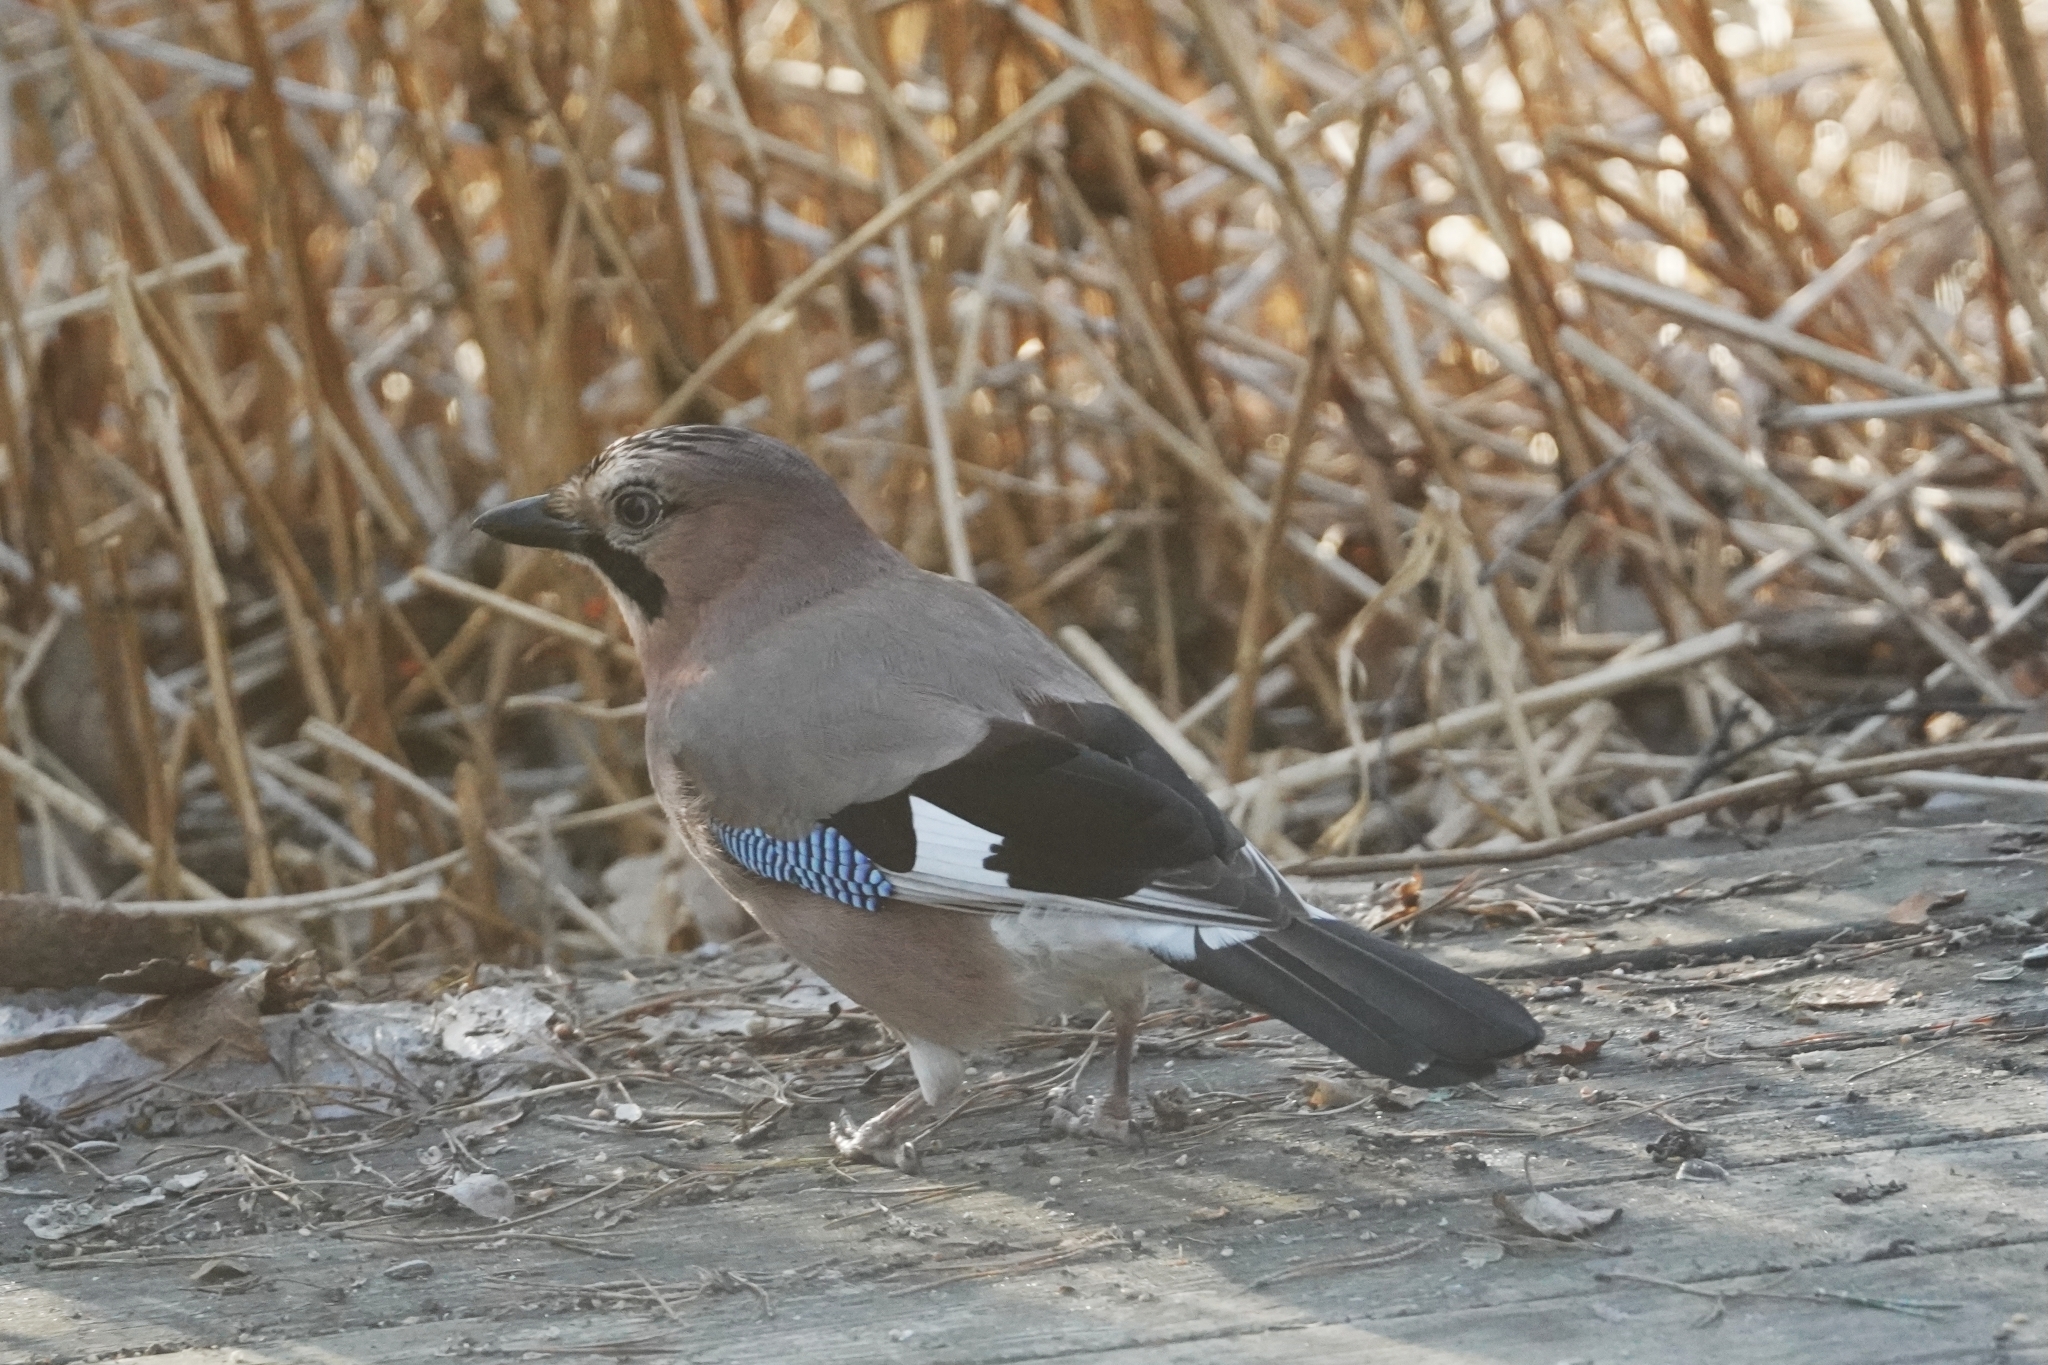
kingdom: Animalia
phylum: Chordata
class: Aves
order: Passeriformes
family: Corvidae
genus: Garrulus
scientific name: Garrulus glandarius
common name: Eurasian jay
